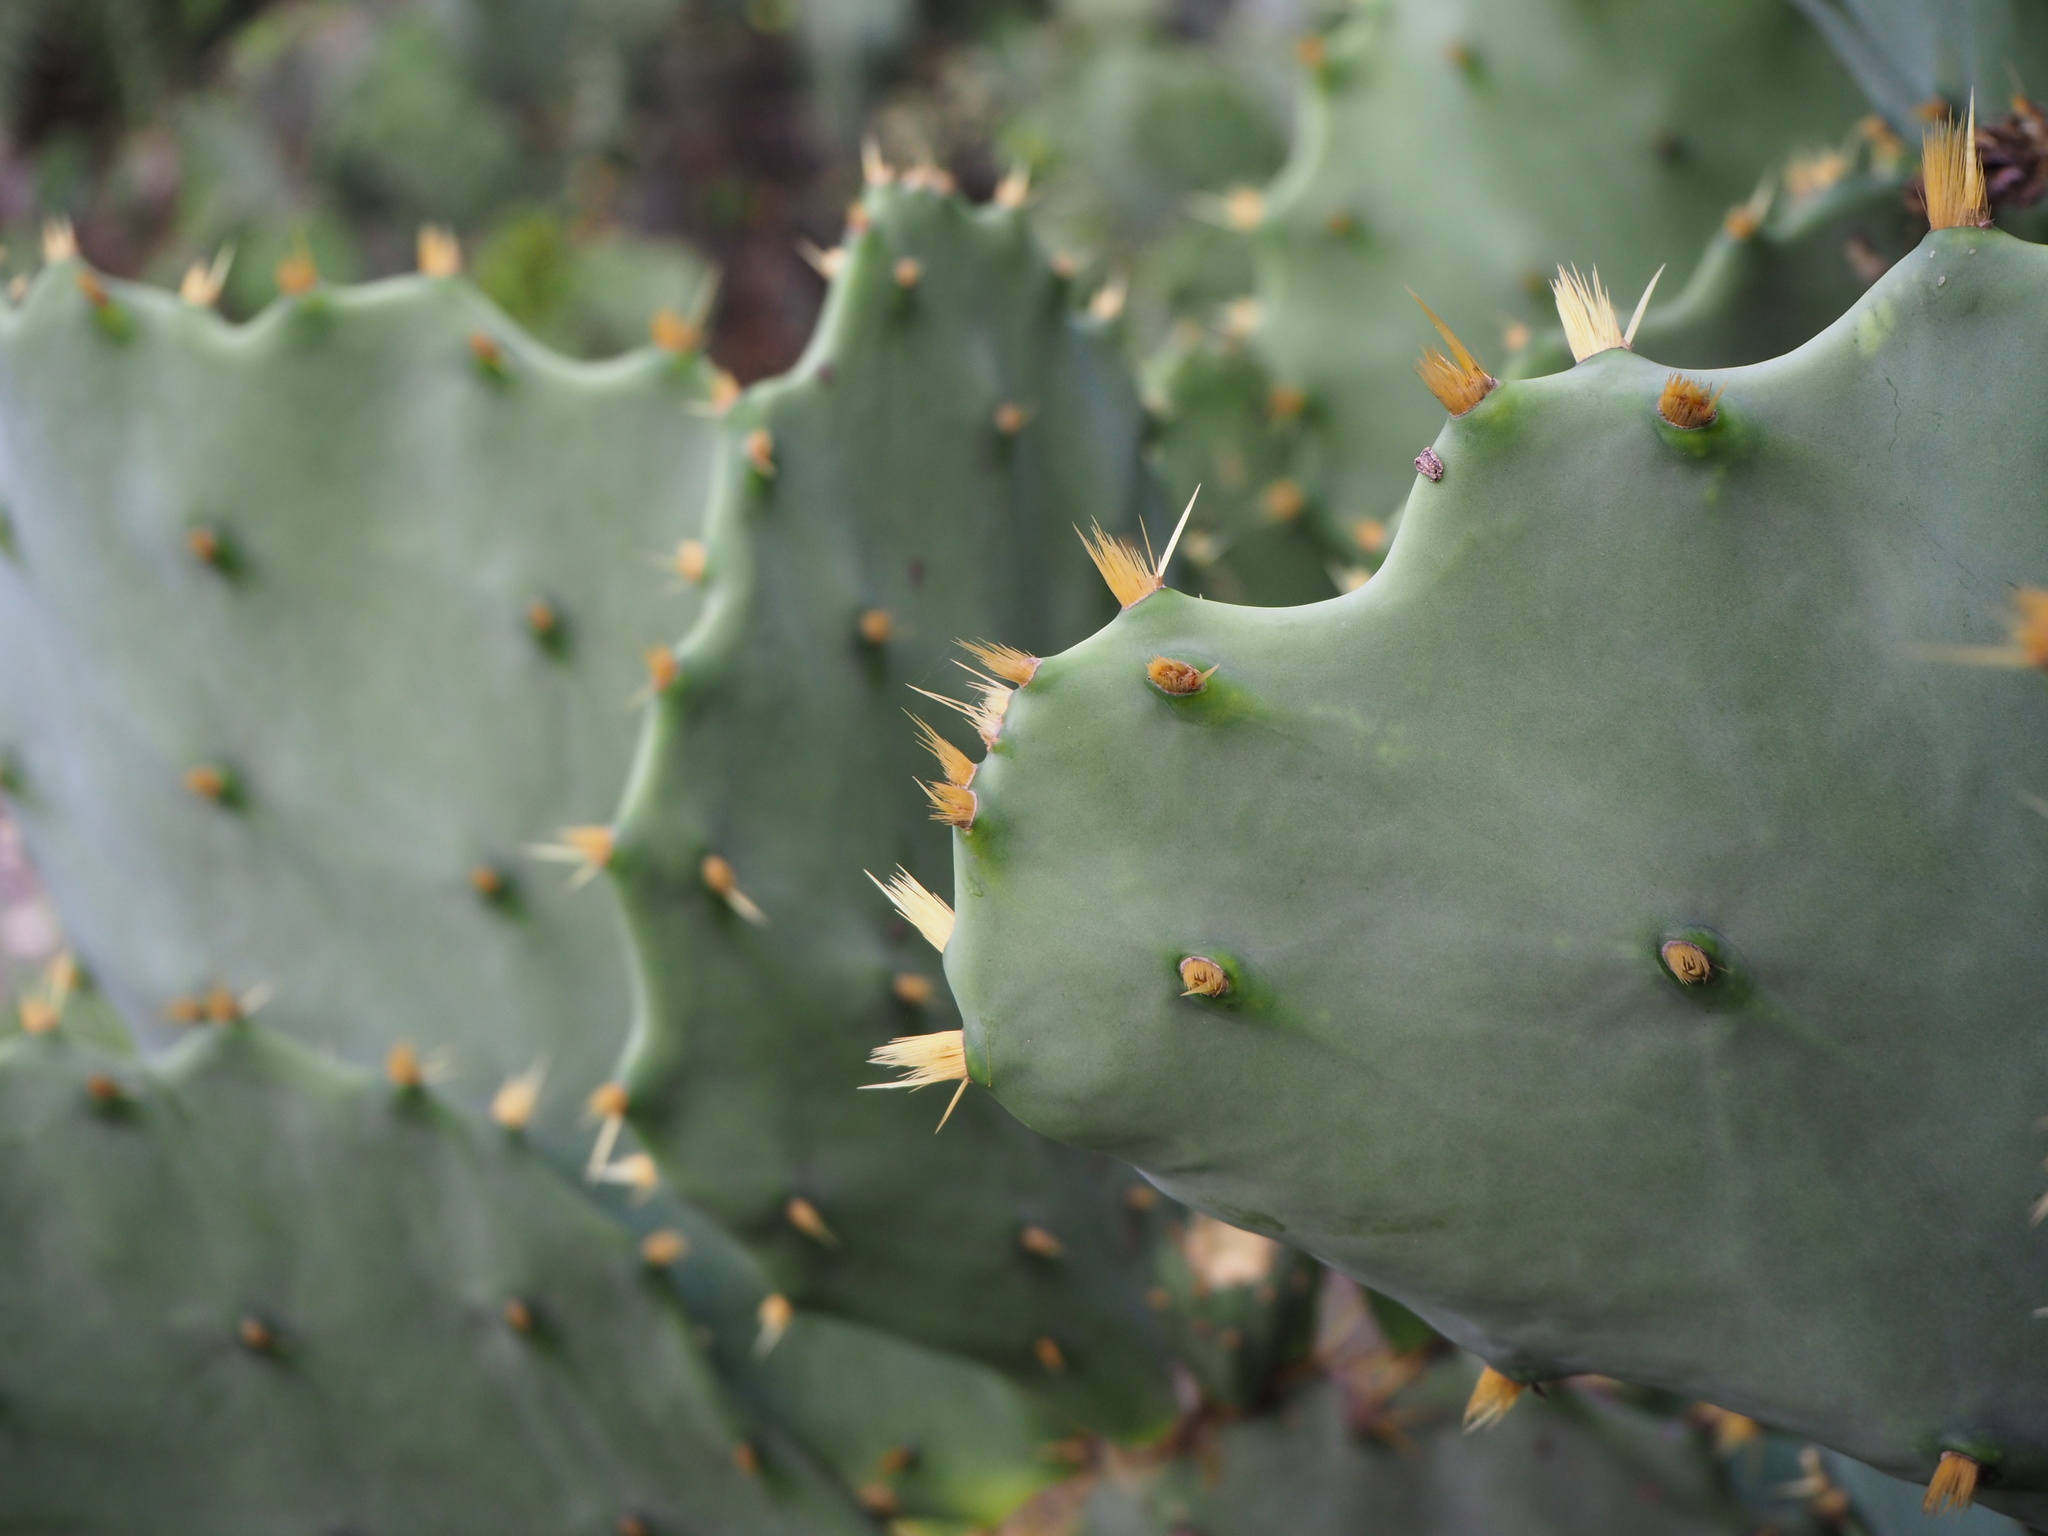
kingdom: Plantae
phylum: Tracheophyta
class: Magnoliopsida
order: Caryophyllales
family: Cactaceae
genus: Opuntia
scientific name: Opuntia dillenii
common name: Sour prickle
